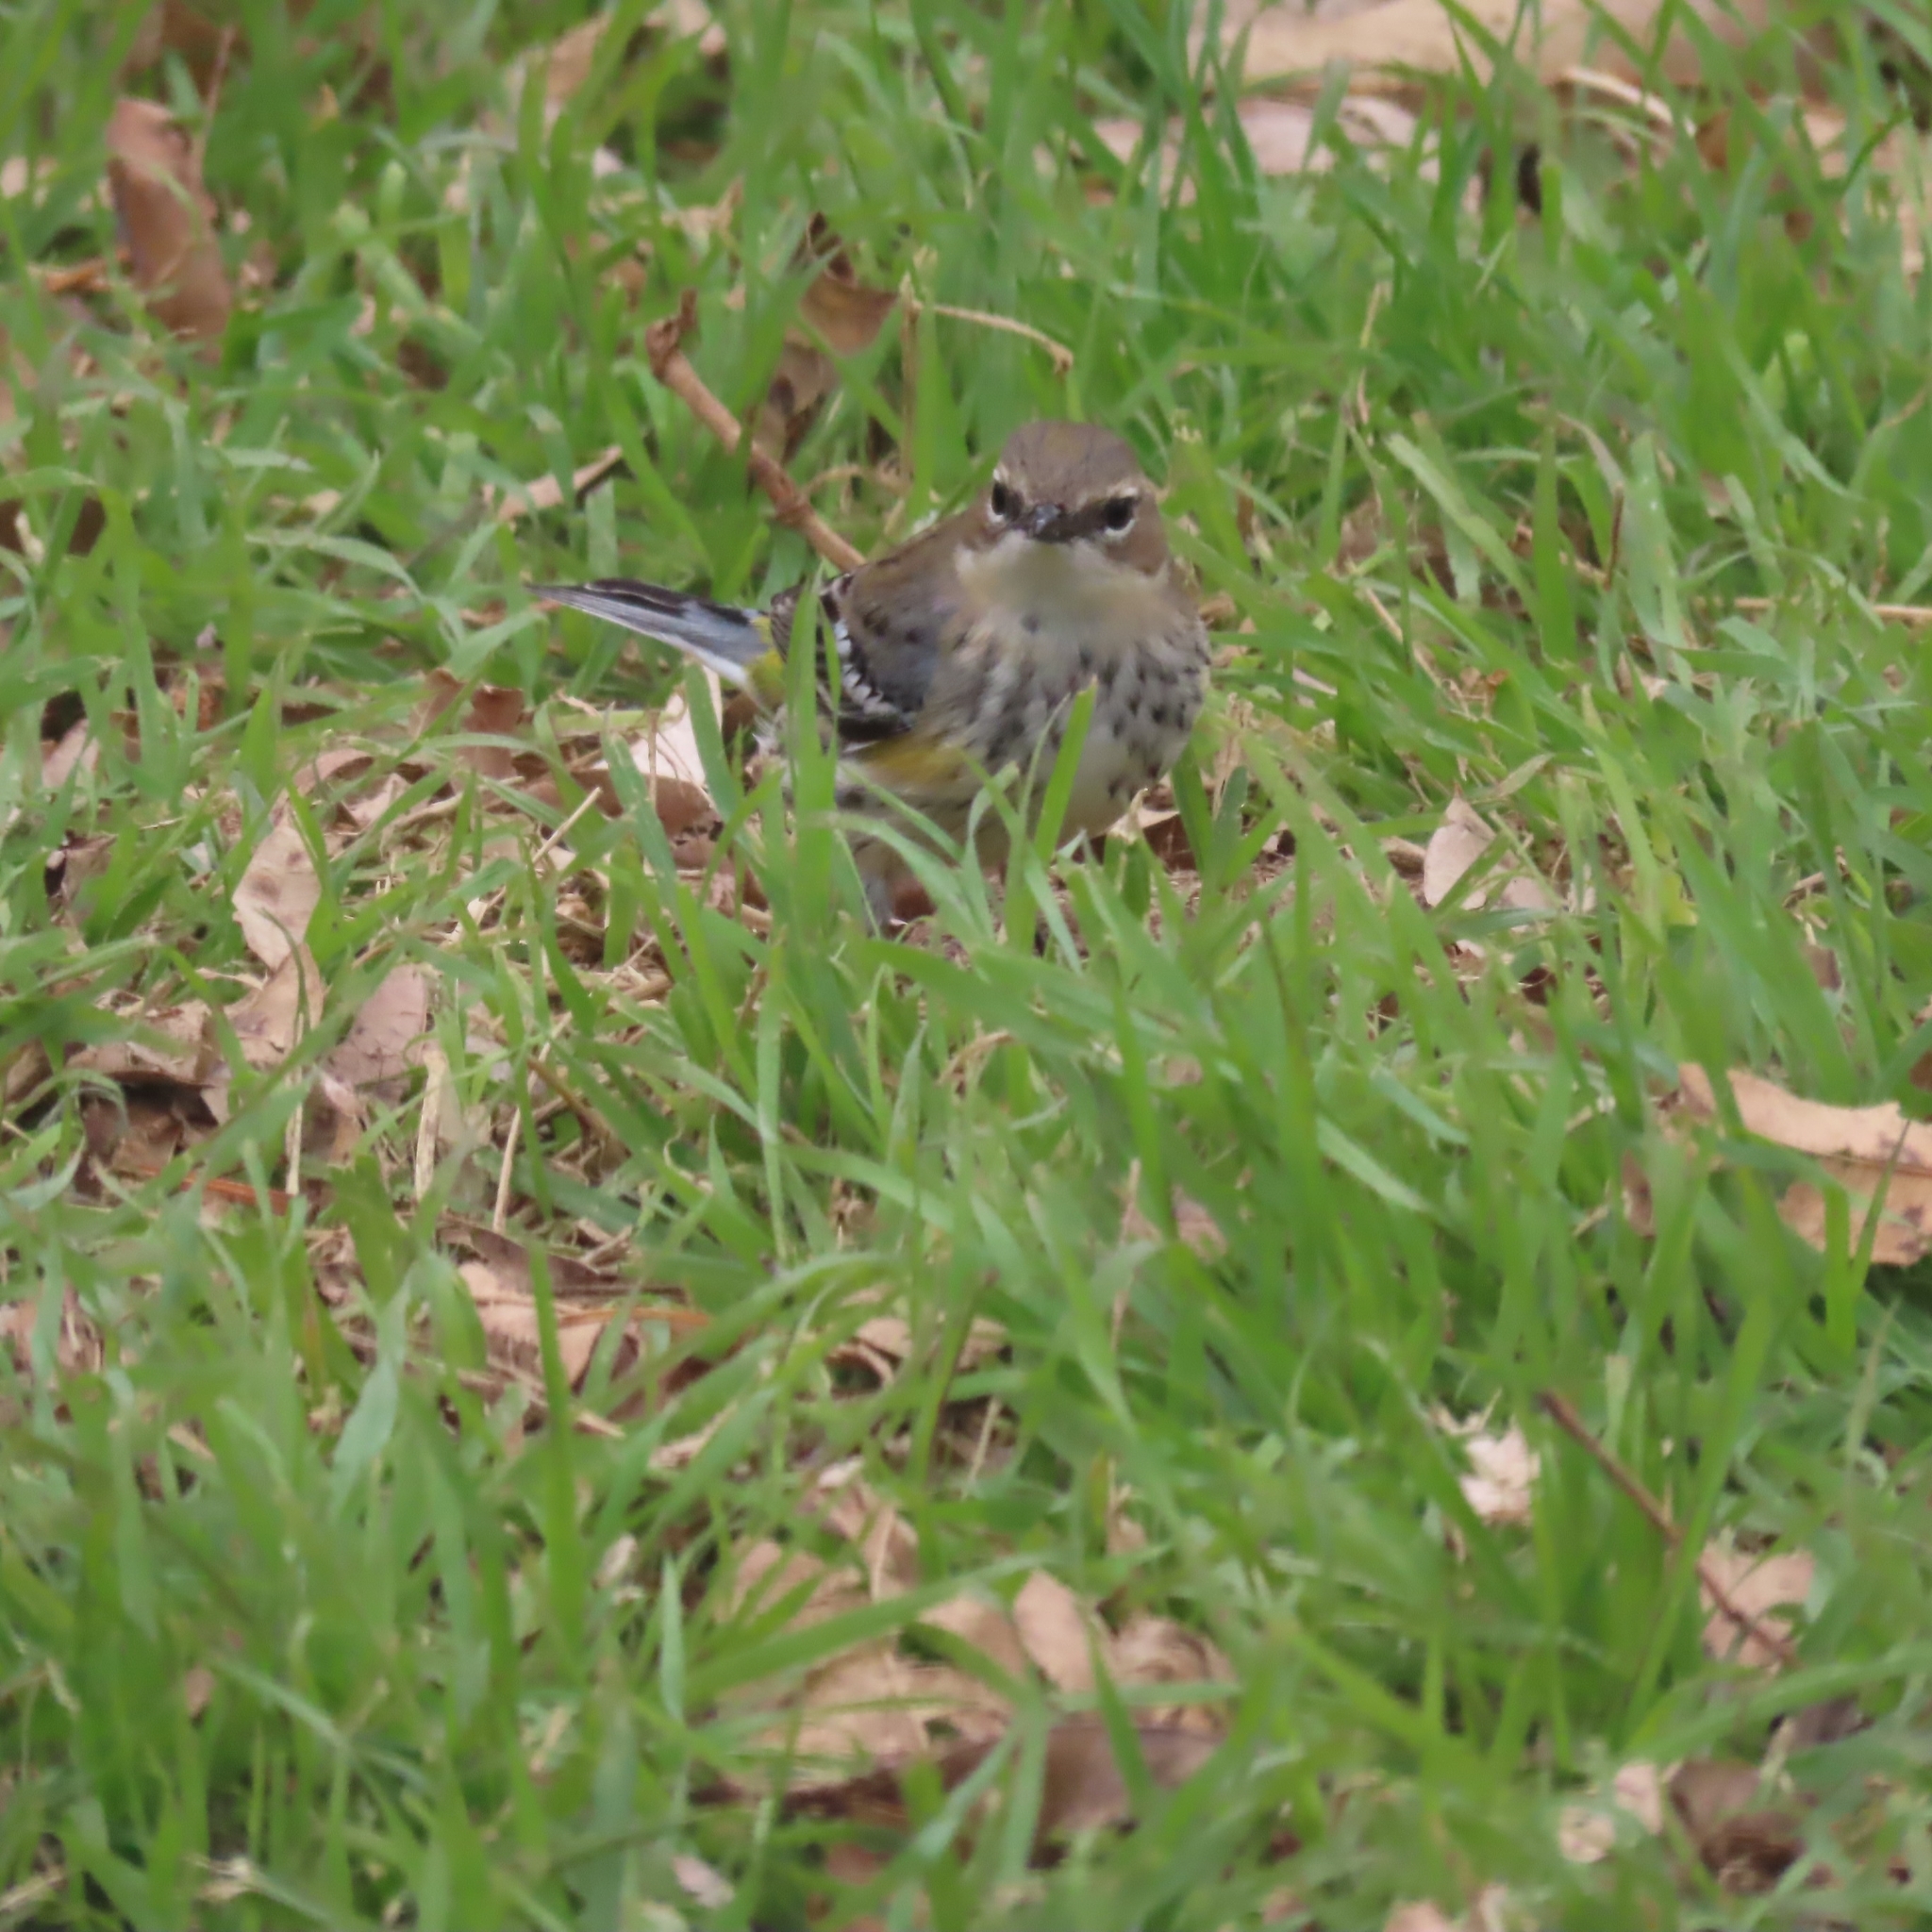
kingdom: Animalia
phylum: Chordata
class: Aves
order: Passeriformes
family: Parulidae
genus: Setophaga
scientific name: Setophaga coronata
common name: Myrtle warbler
